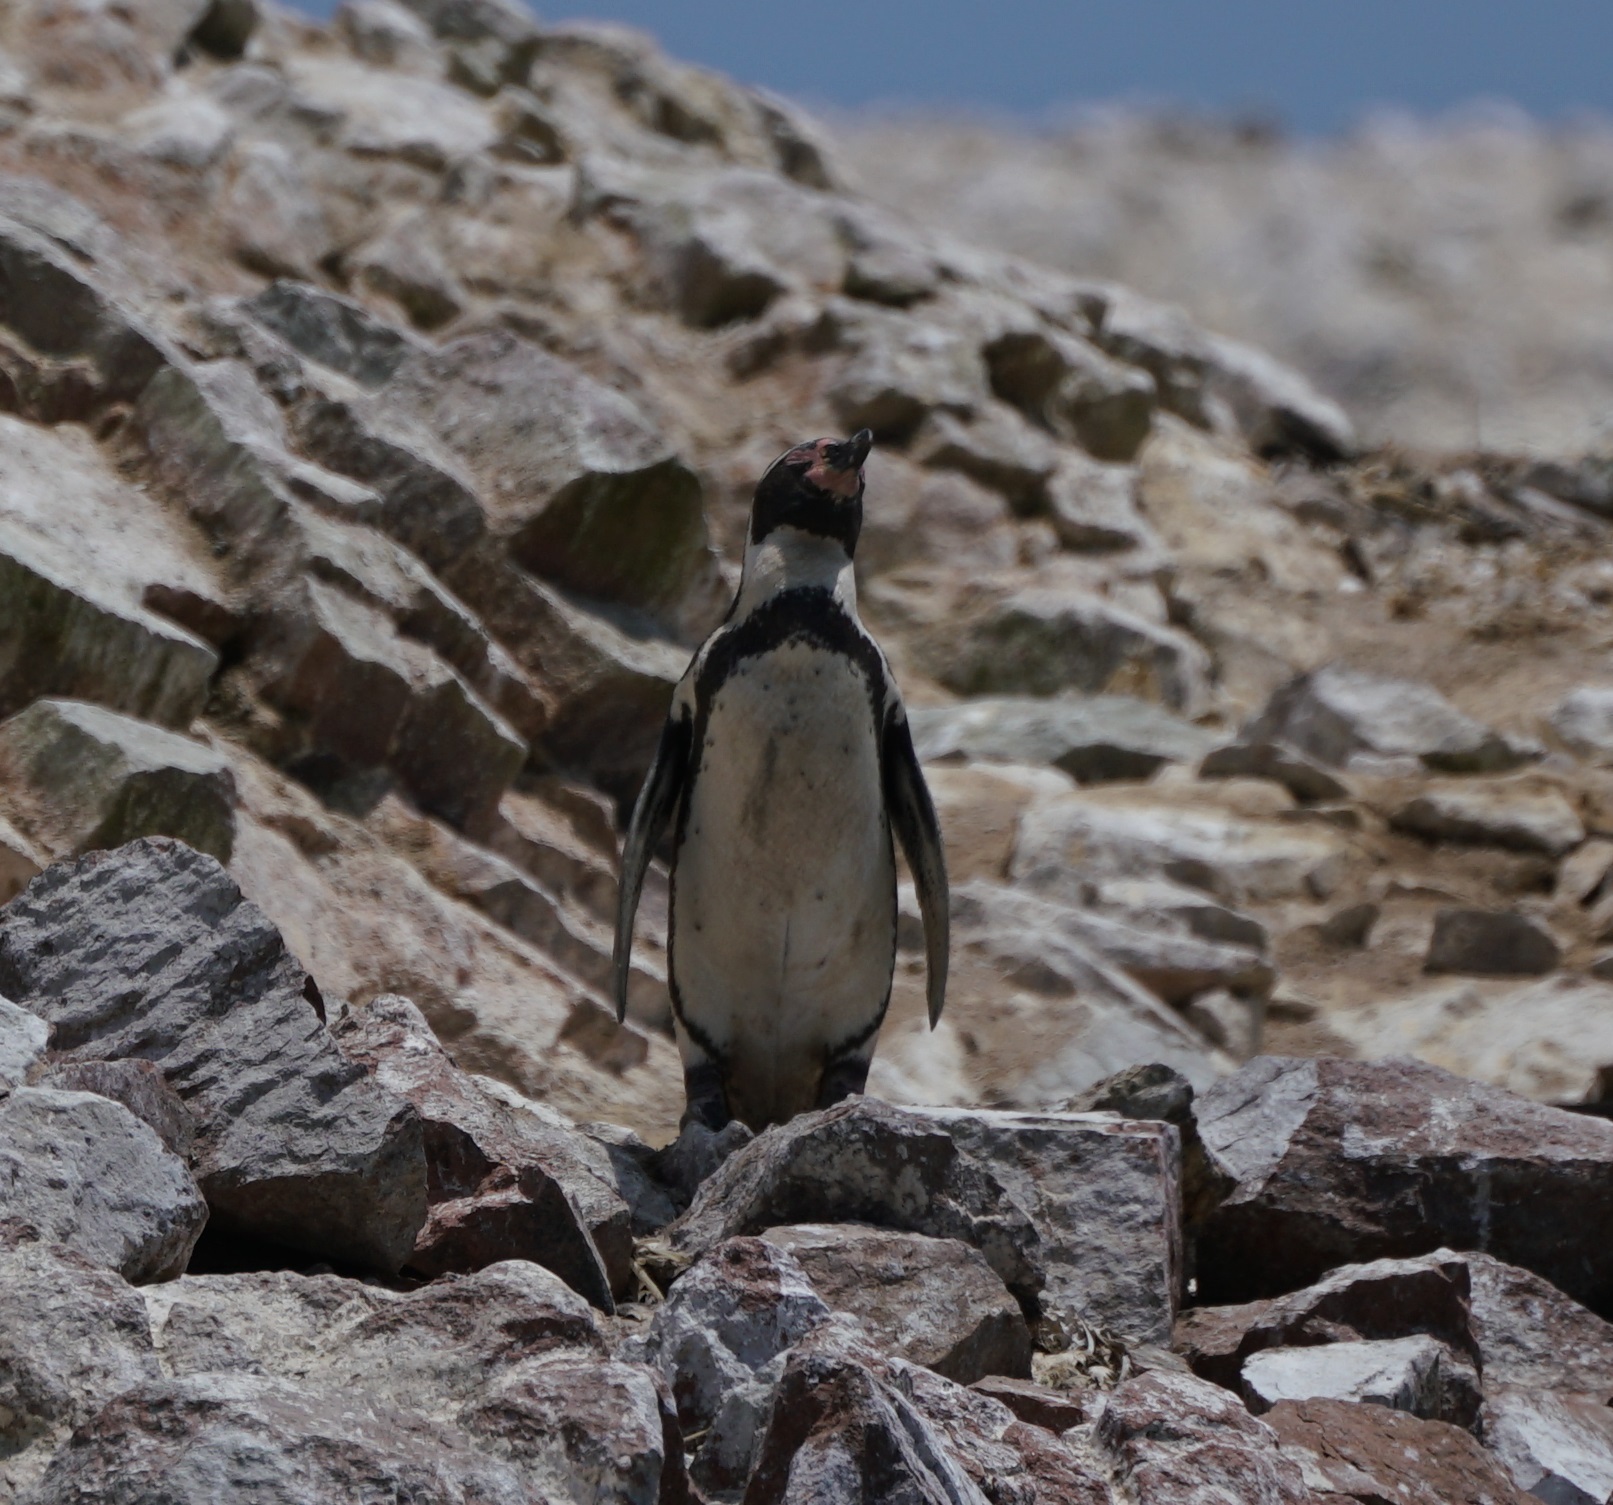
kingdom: Animalia
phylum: Chordata
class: Aves
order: Sphenisciformes
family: Spheniscidae
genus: Spheniscus
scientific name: Spheniscus humboldti
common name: Humboldt penguin
